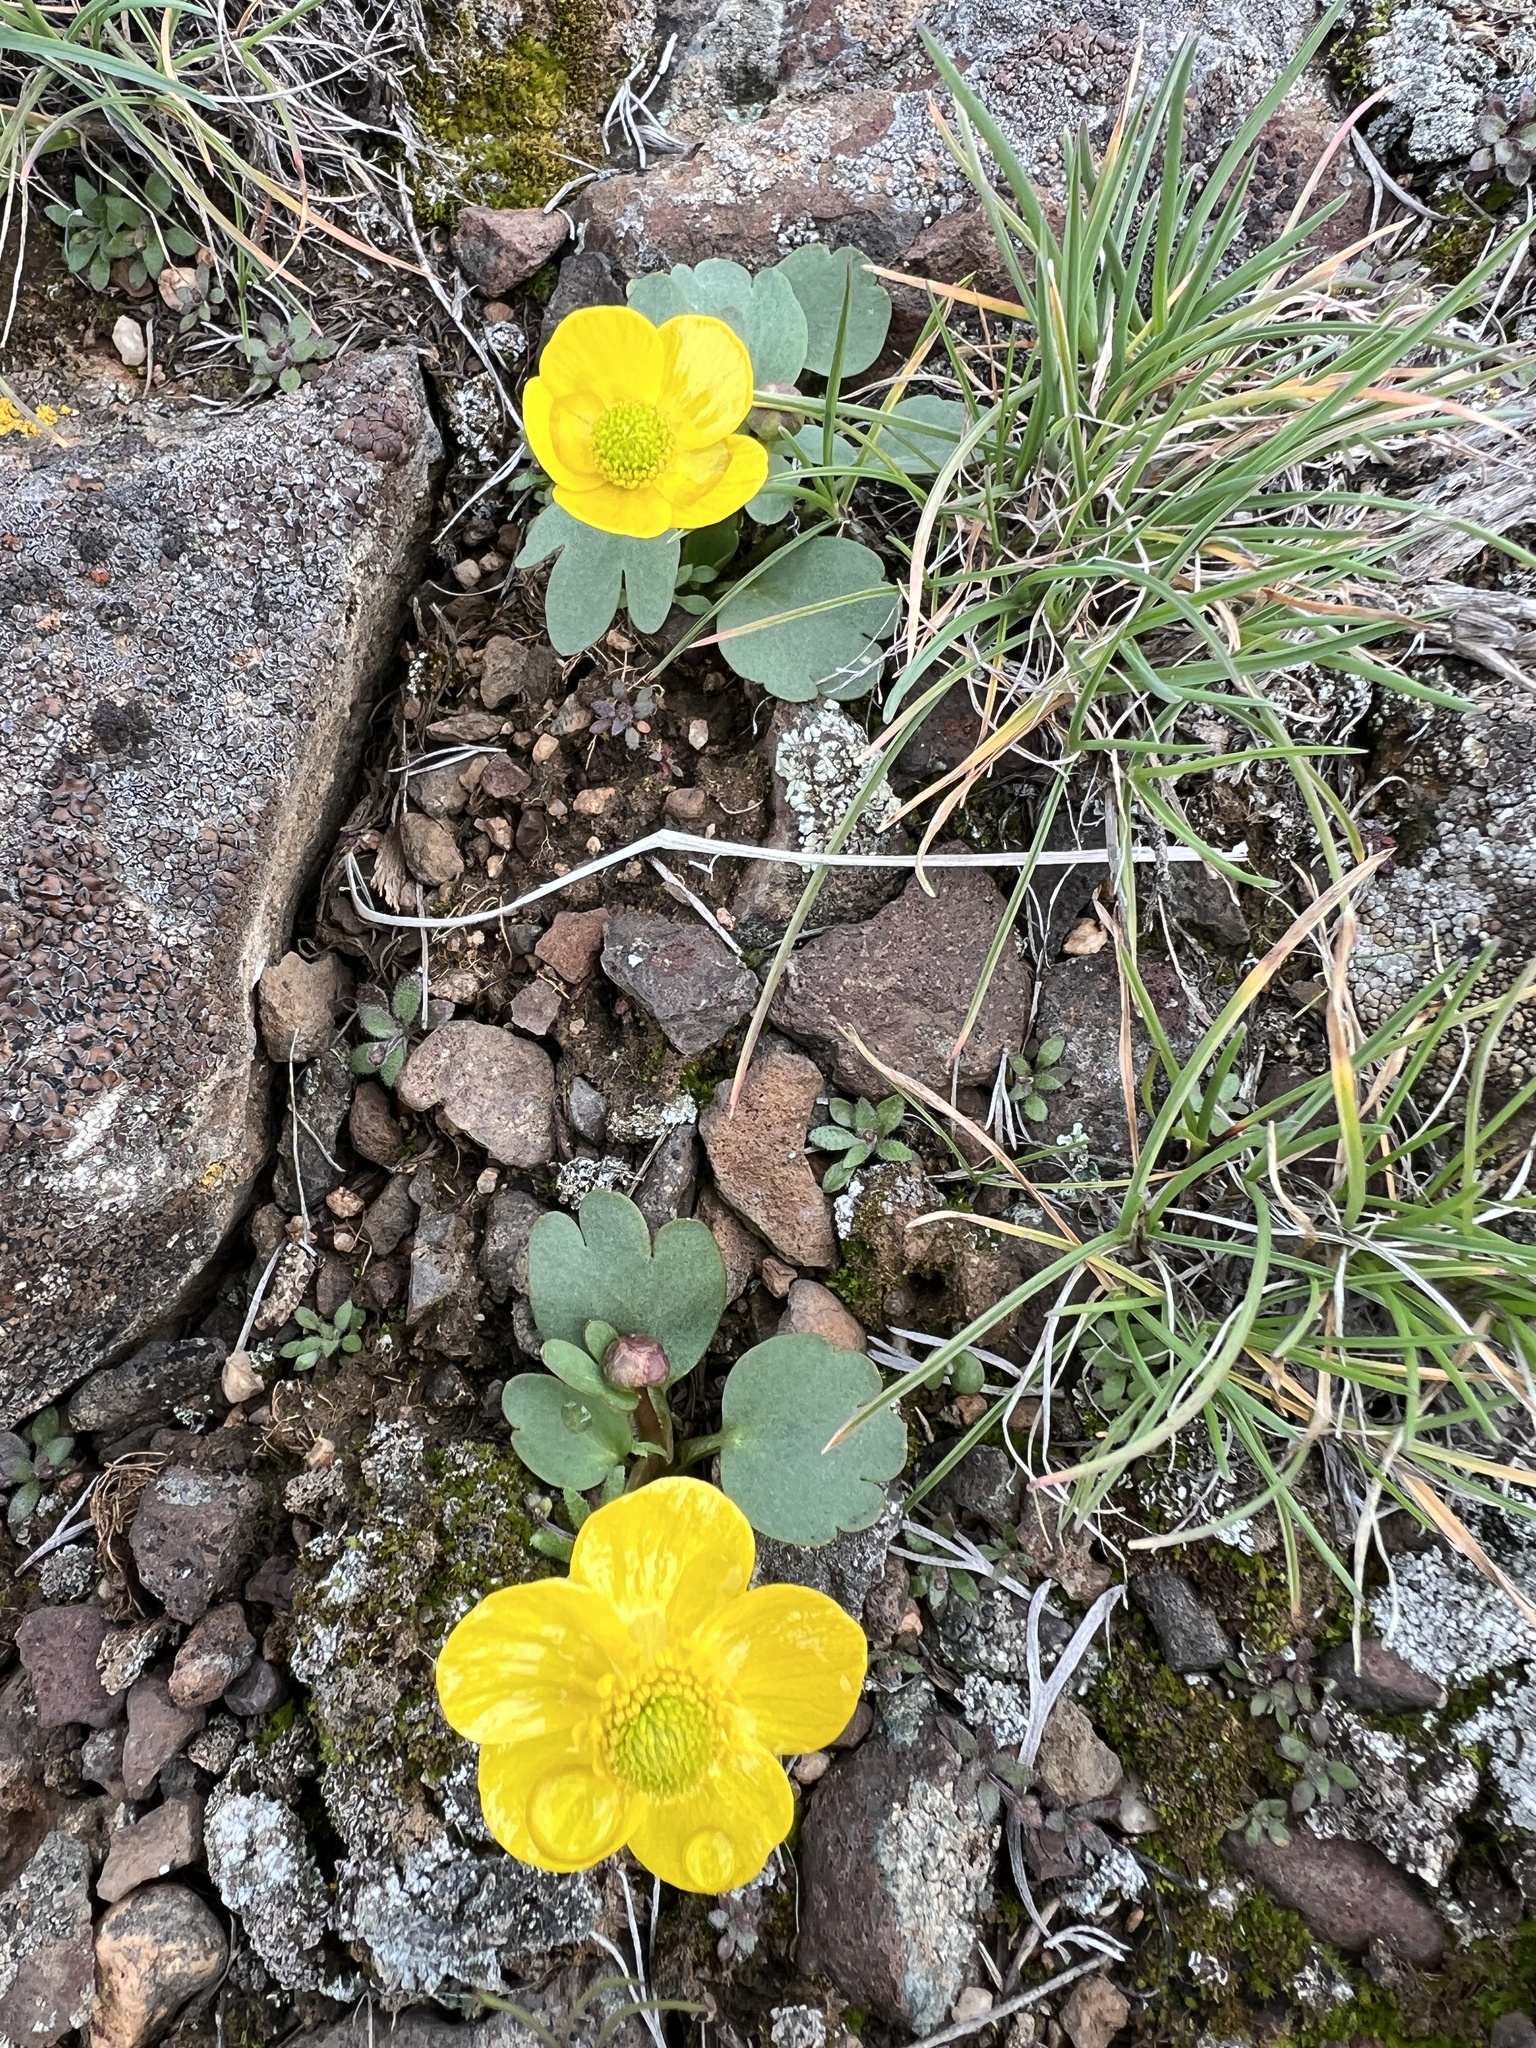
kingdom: Plantae
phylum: Tracheophyta
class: Magnoliopsida
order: Ranunculales
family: Ranunculaceae
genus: Ranunculus
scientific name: Ranunculus glaberrimus
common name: Sagebrush buttercup
